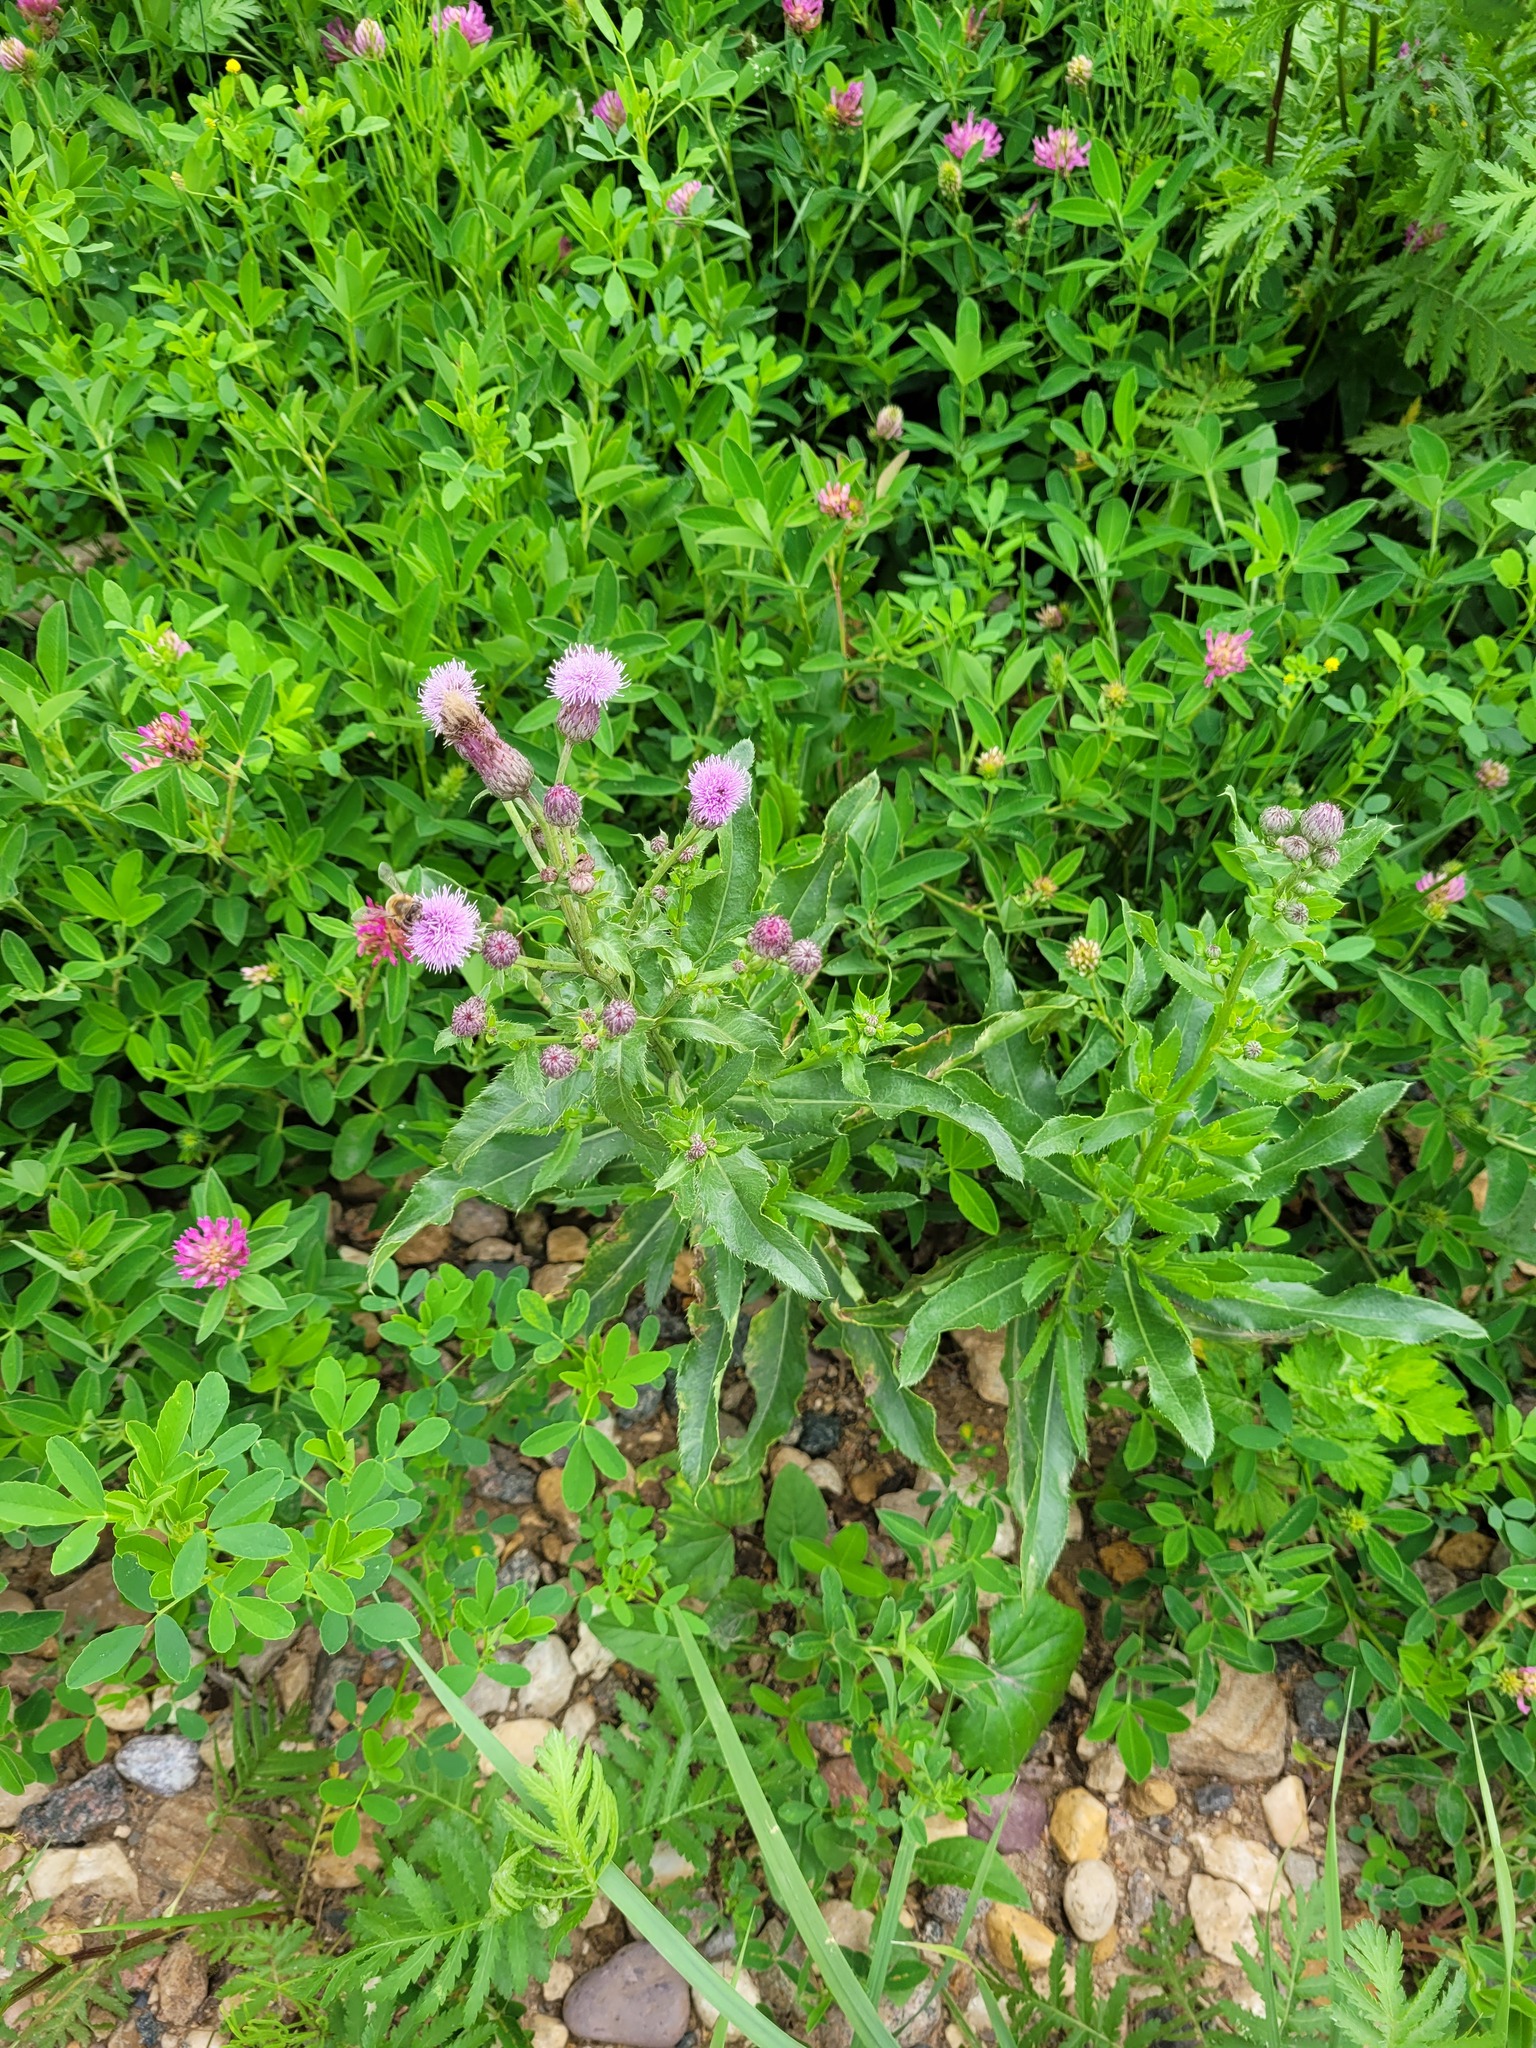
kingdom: Plantae
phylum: Tracheophyta
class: Magnoliopsida
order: Asterales
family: Asteraceae
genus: Cirsium
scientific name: Cirsium arvense
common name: Creeping thistle
